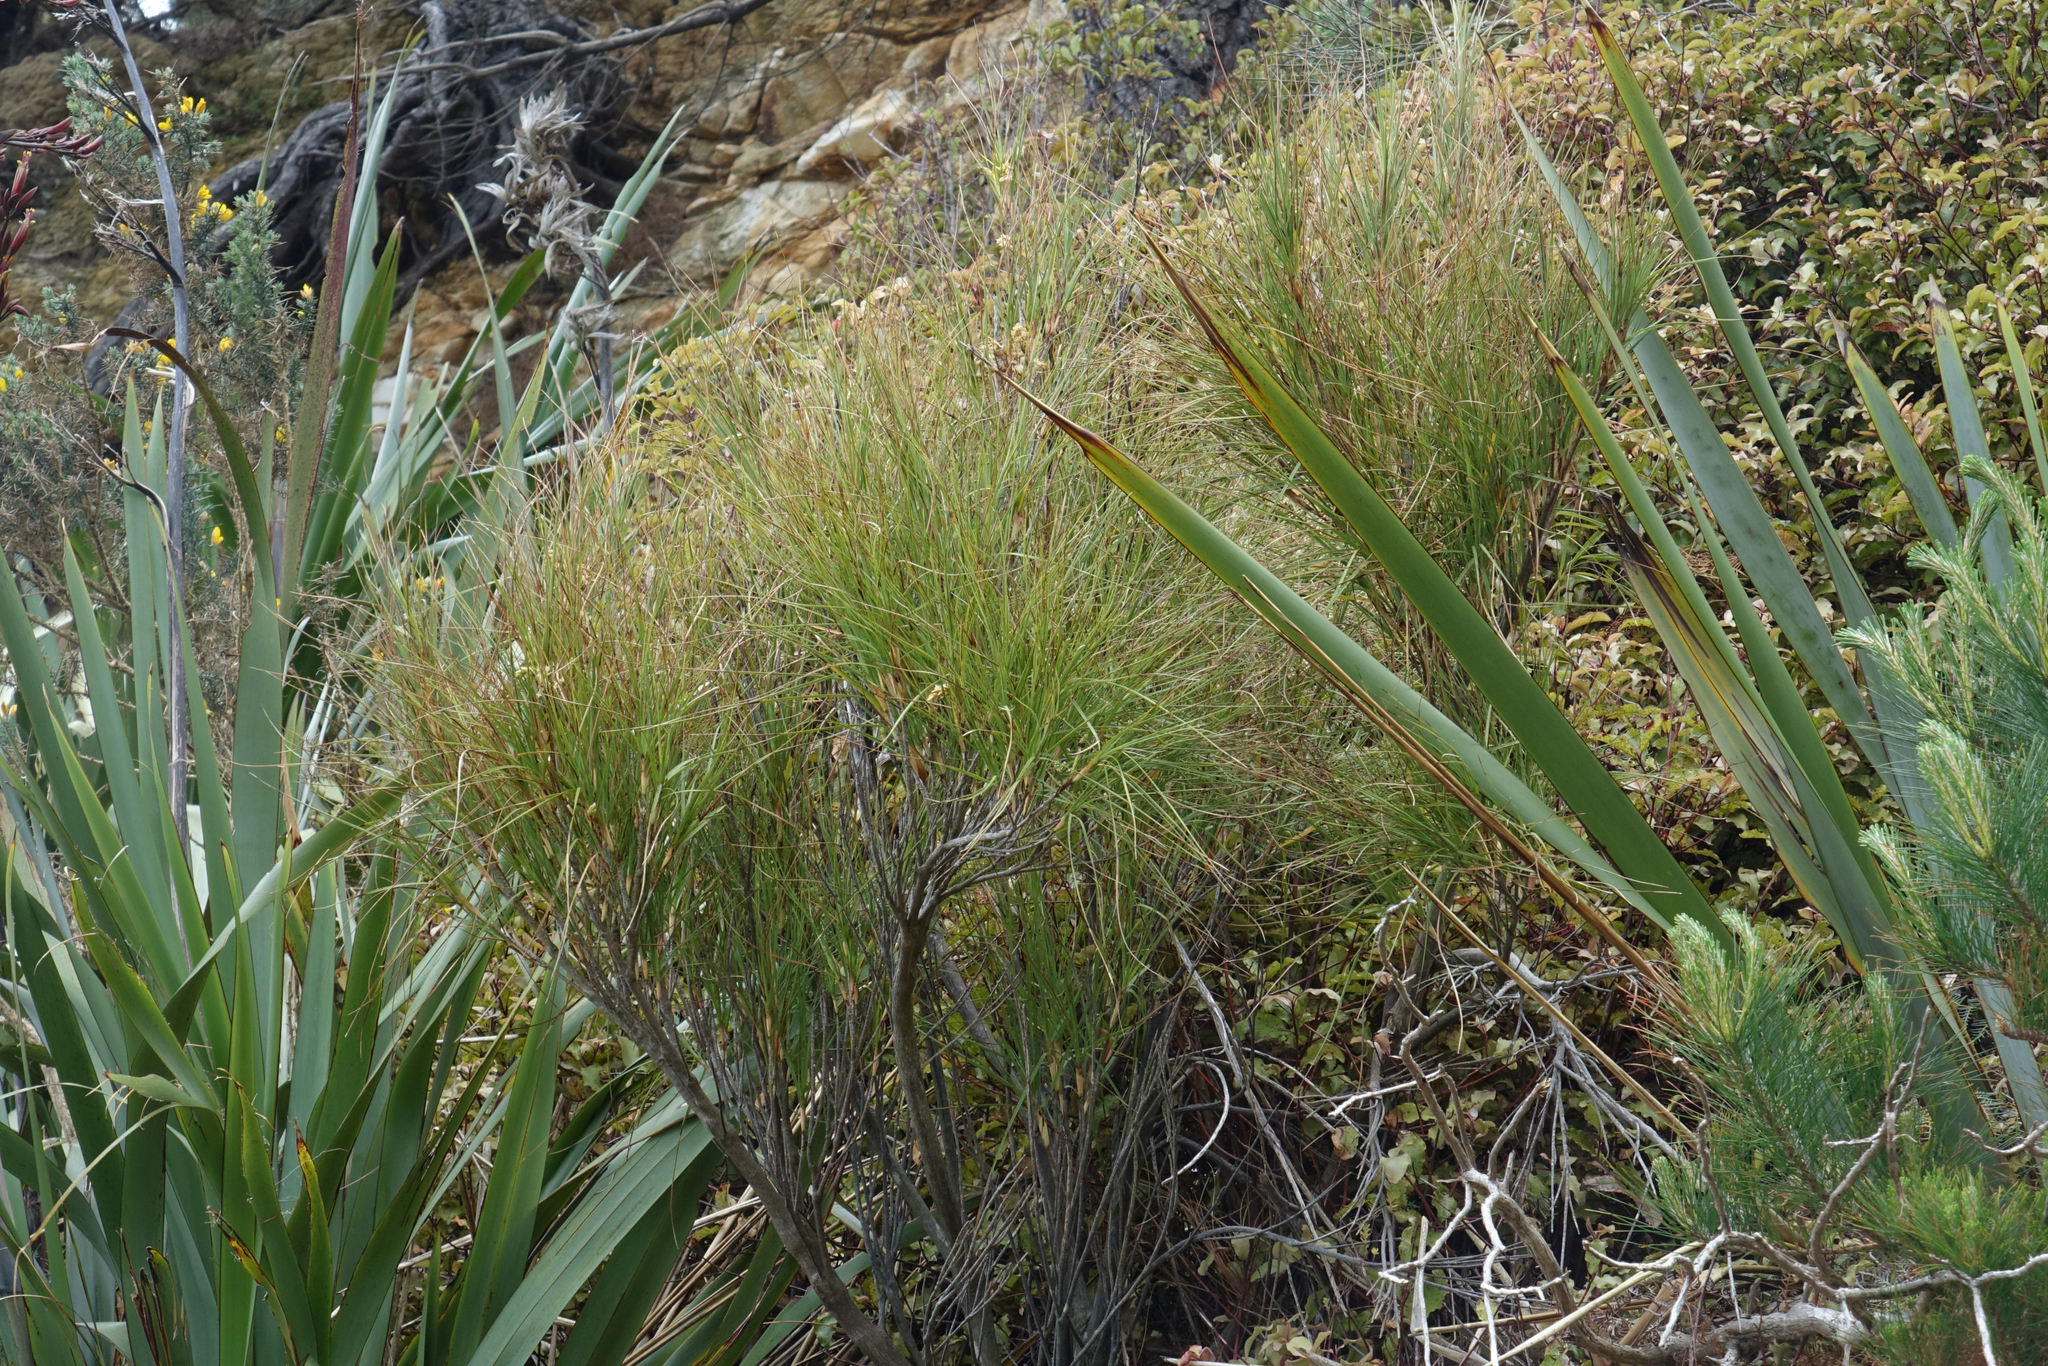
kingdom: Plantae
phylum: Tracheophyta
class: Magnoliopsida
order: Ericales
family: Ericaceae
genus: Dracophyllum
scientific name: Dracophyllum longifolium
